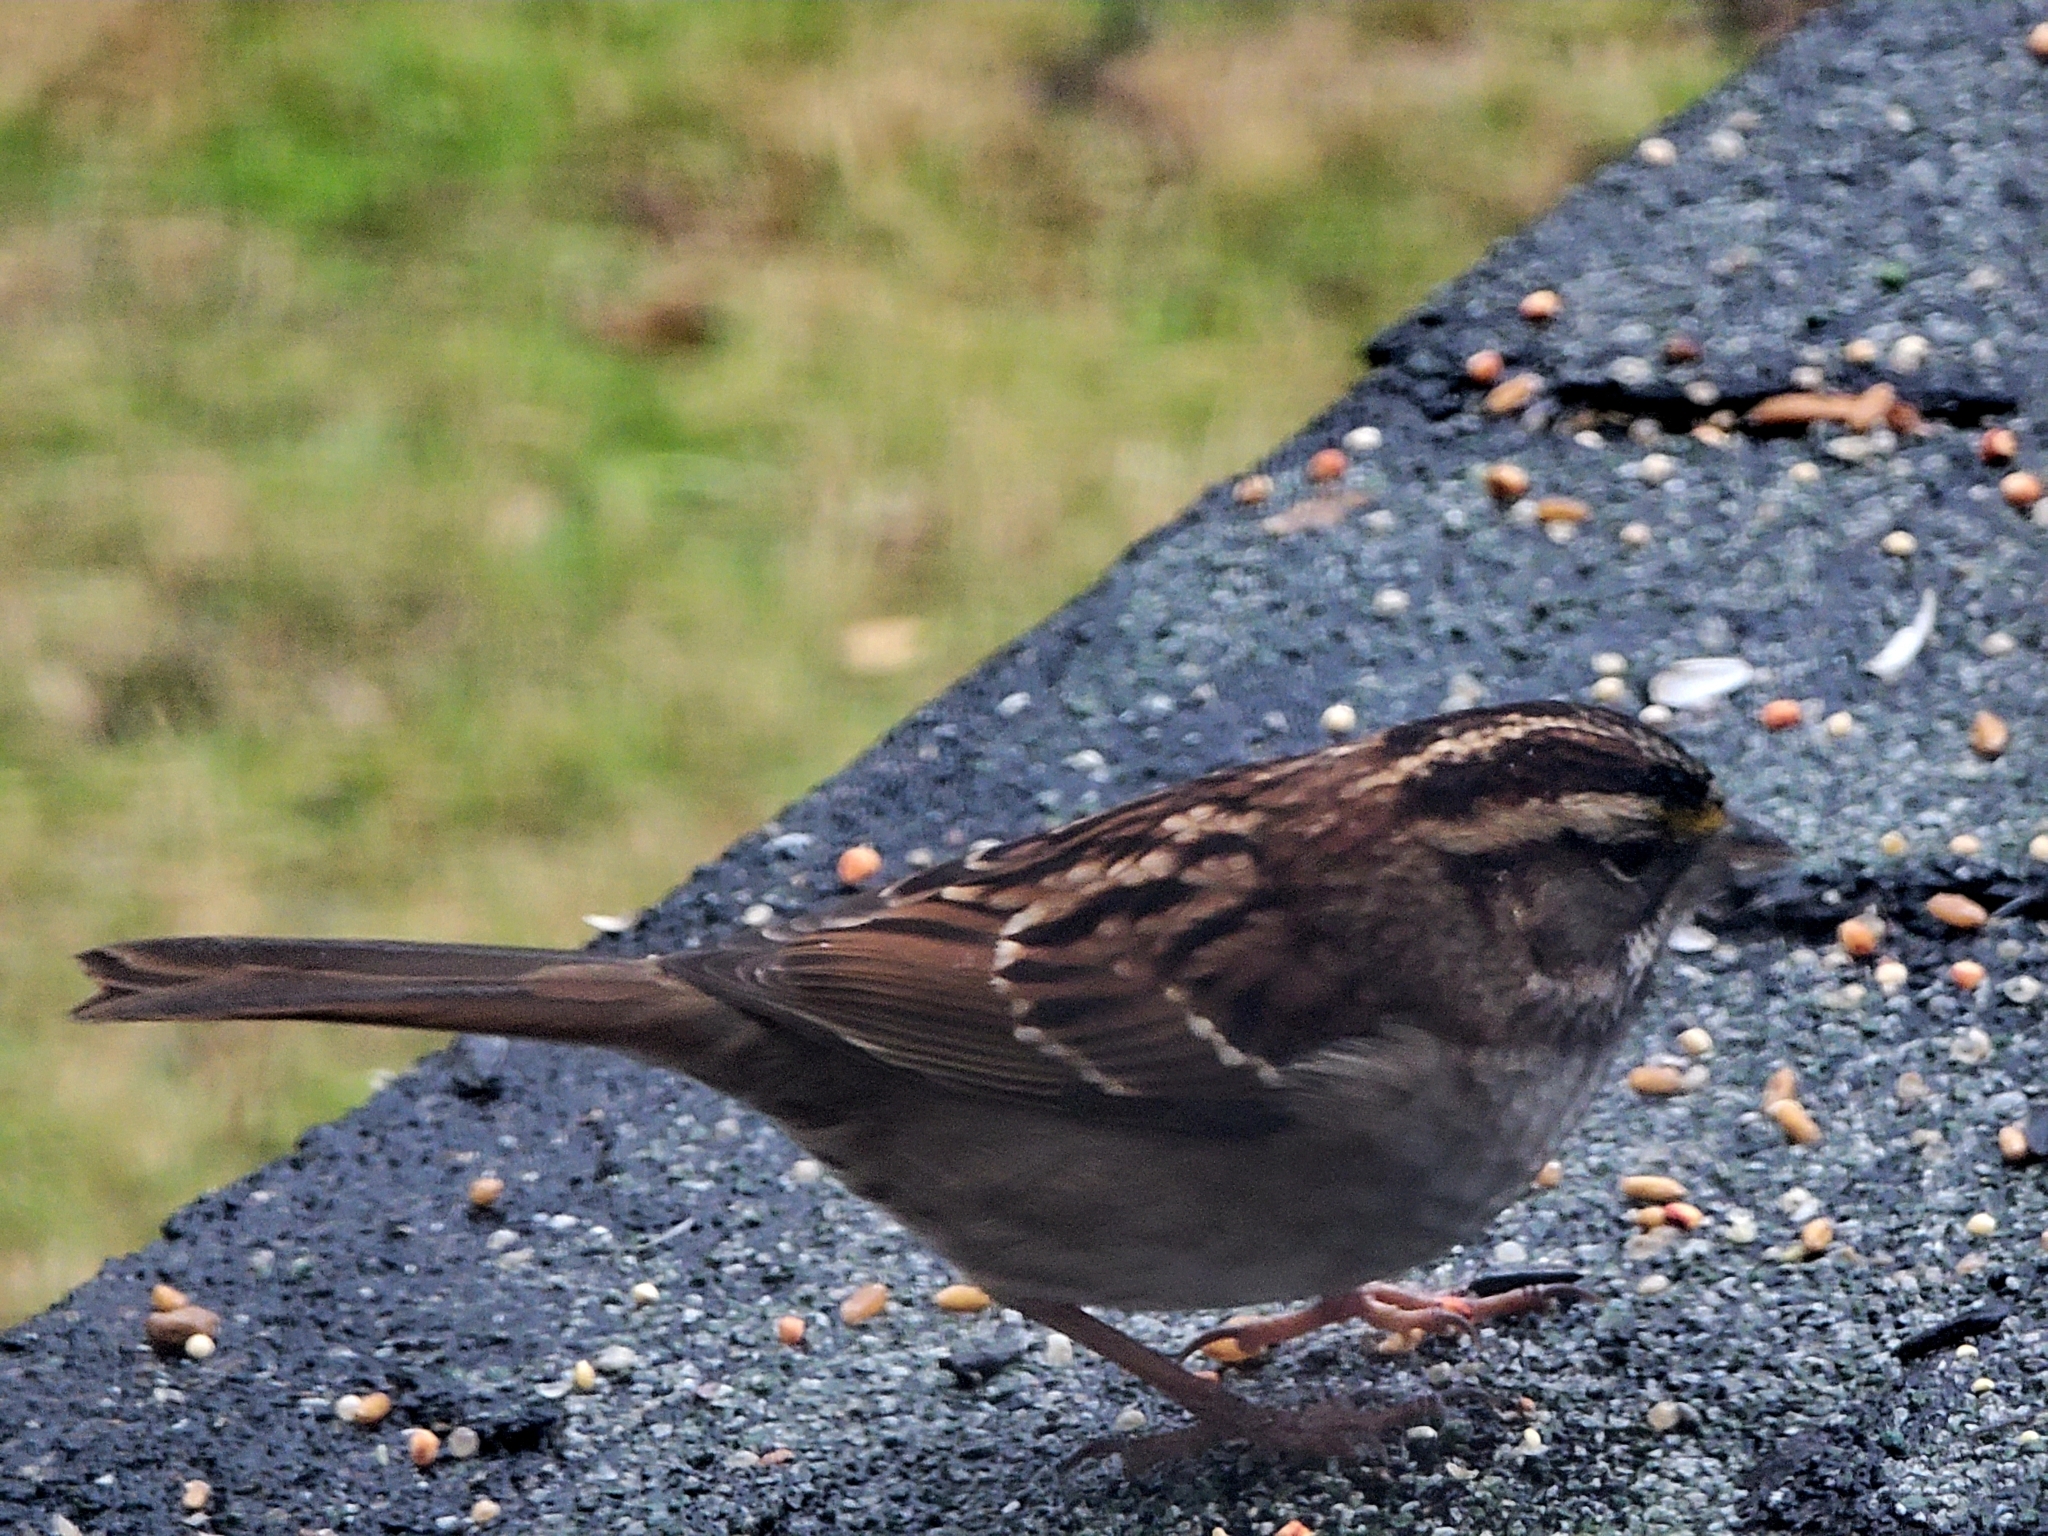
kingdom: Animalia
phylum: Chordata
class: Aves
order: Passeriformes
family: Passerellidae
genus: Zonotrichia
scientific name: Zonotrichia albicollis
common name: White-throated sparrow
